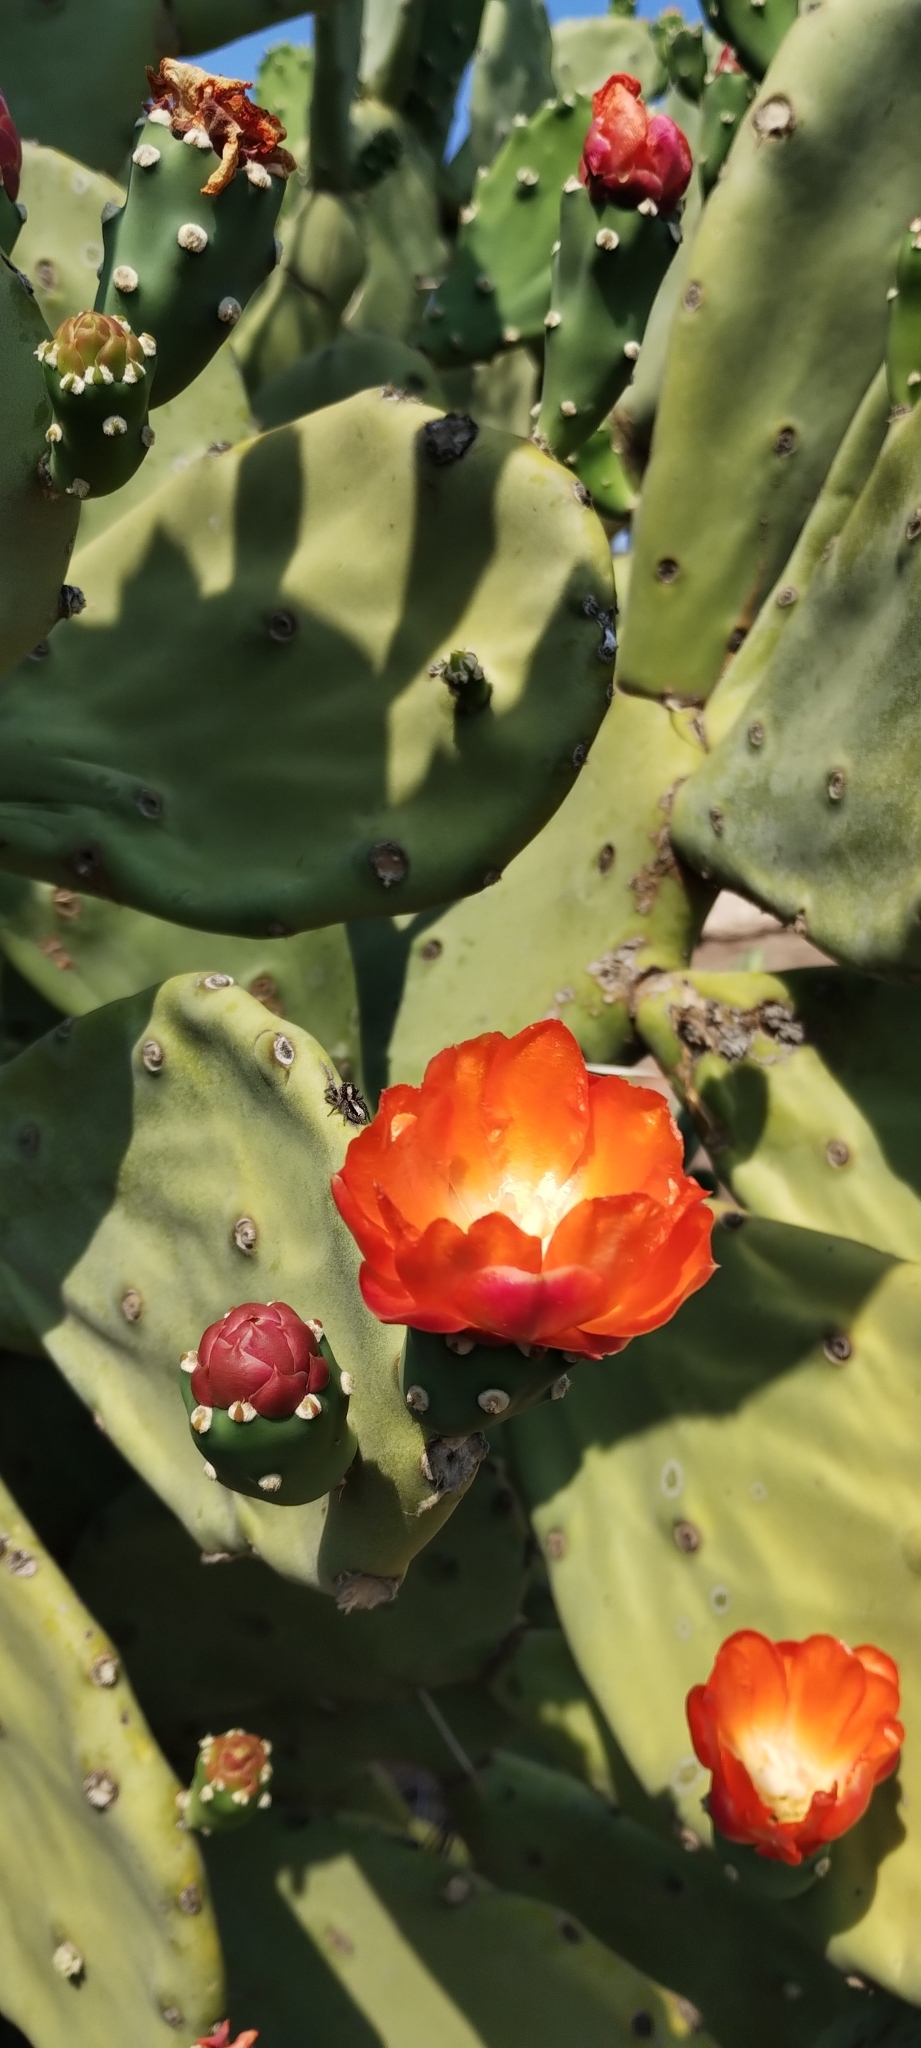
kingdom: Plantae
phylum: Tracheophyta
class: Magnoliopsida
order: Caryophyllales
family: Cactaceae
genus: Opuntia
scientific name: Opuntia quimilo
